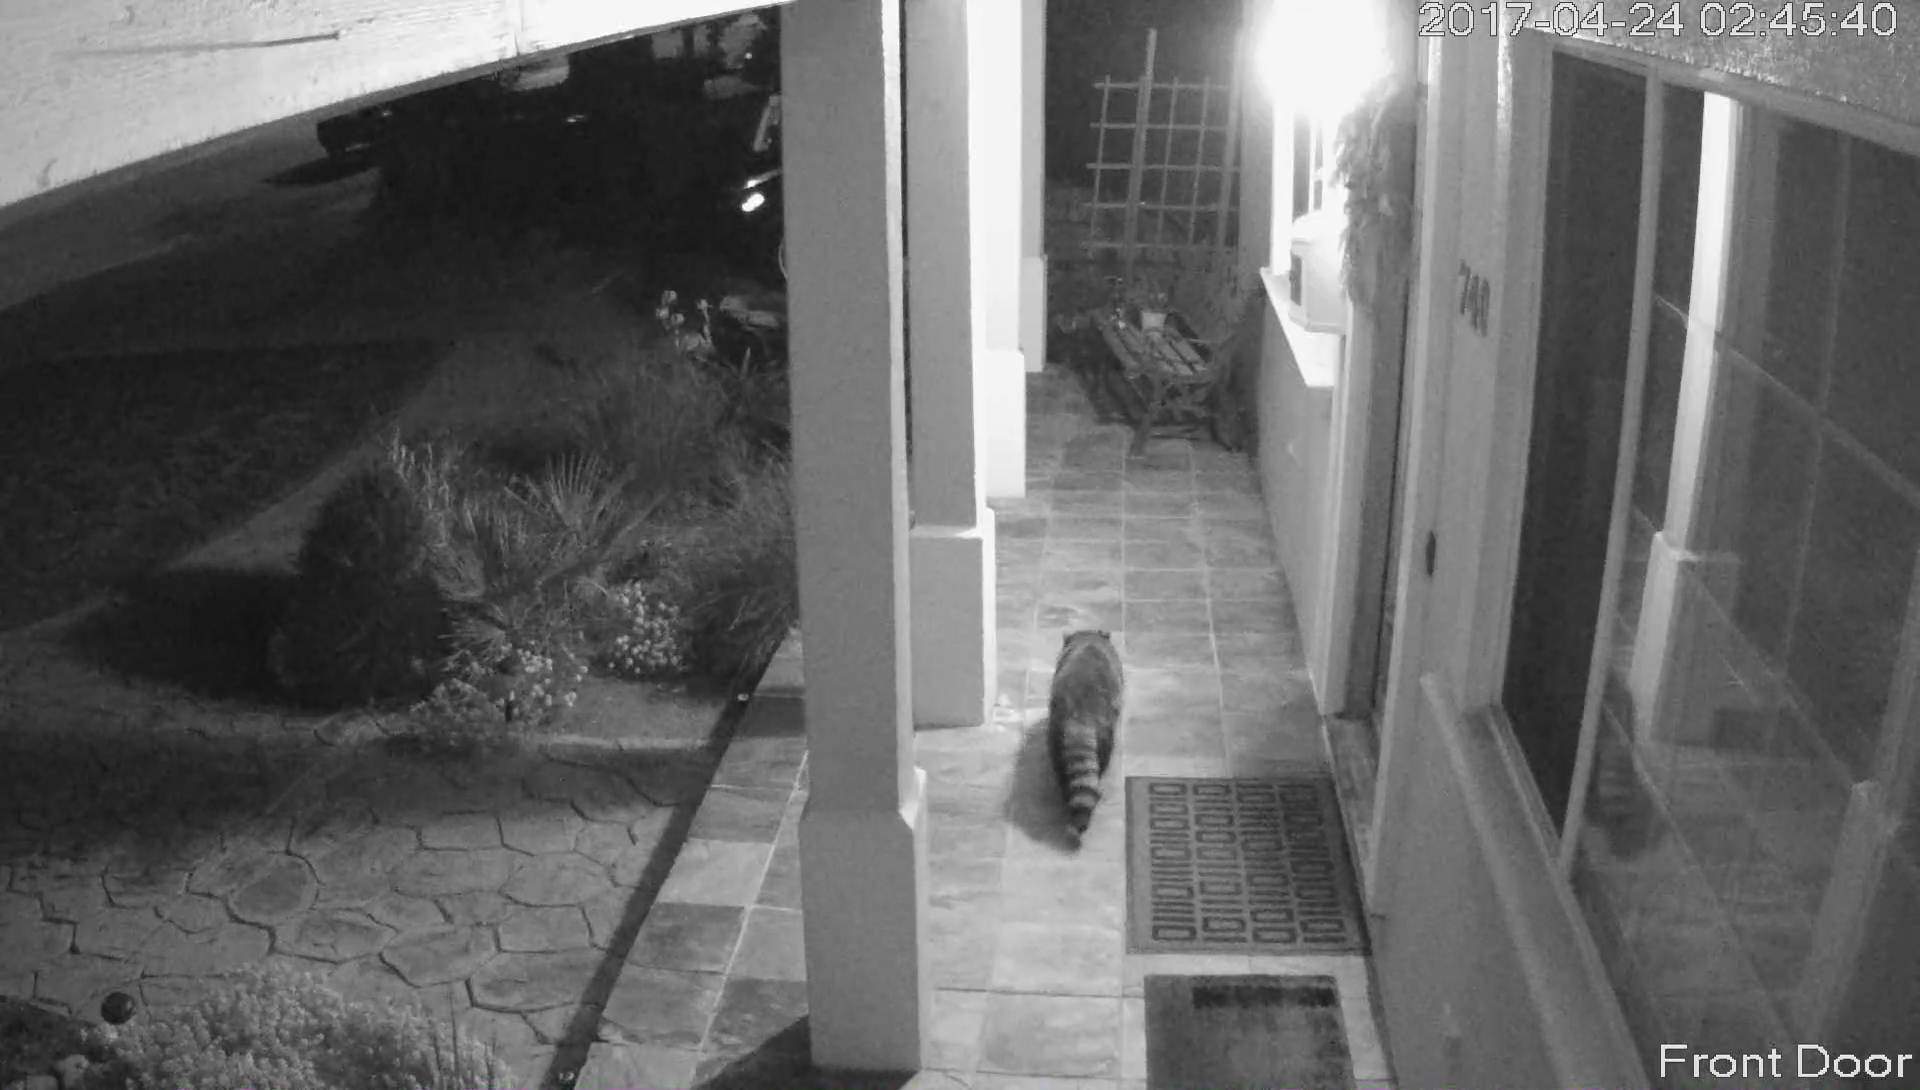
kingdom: Animalia
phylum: Chordata
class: Mammalia
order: Carnivora
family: Procyonidae
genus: Procyon
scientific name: Procyon lotor
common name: Raccoon
